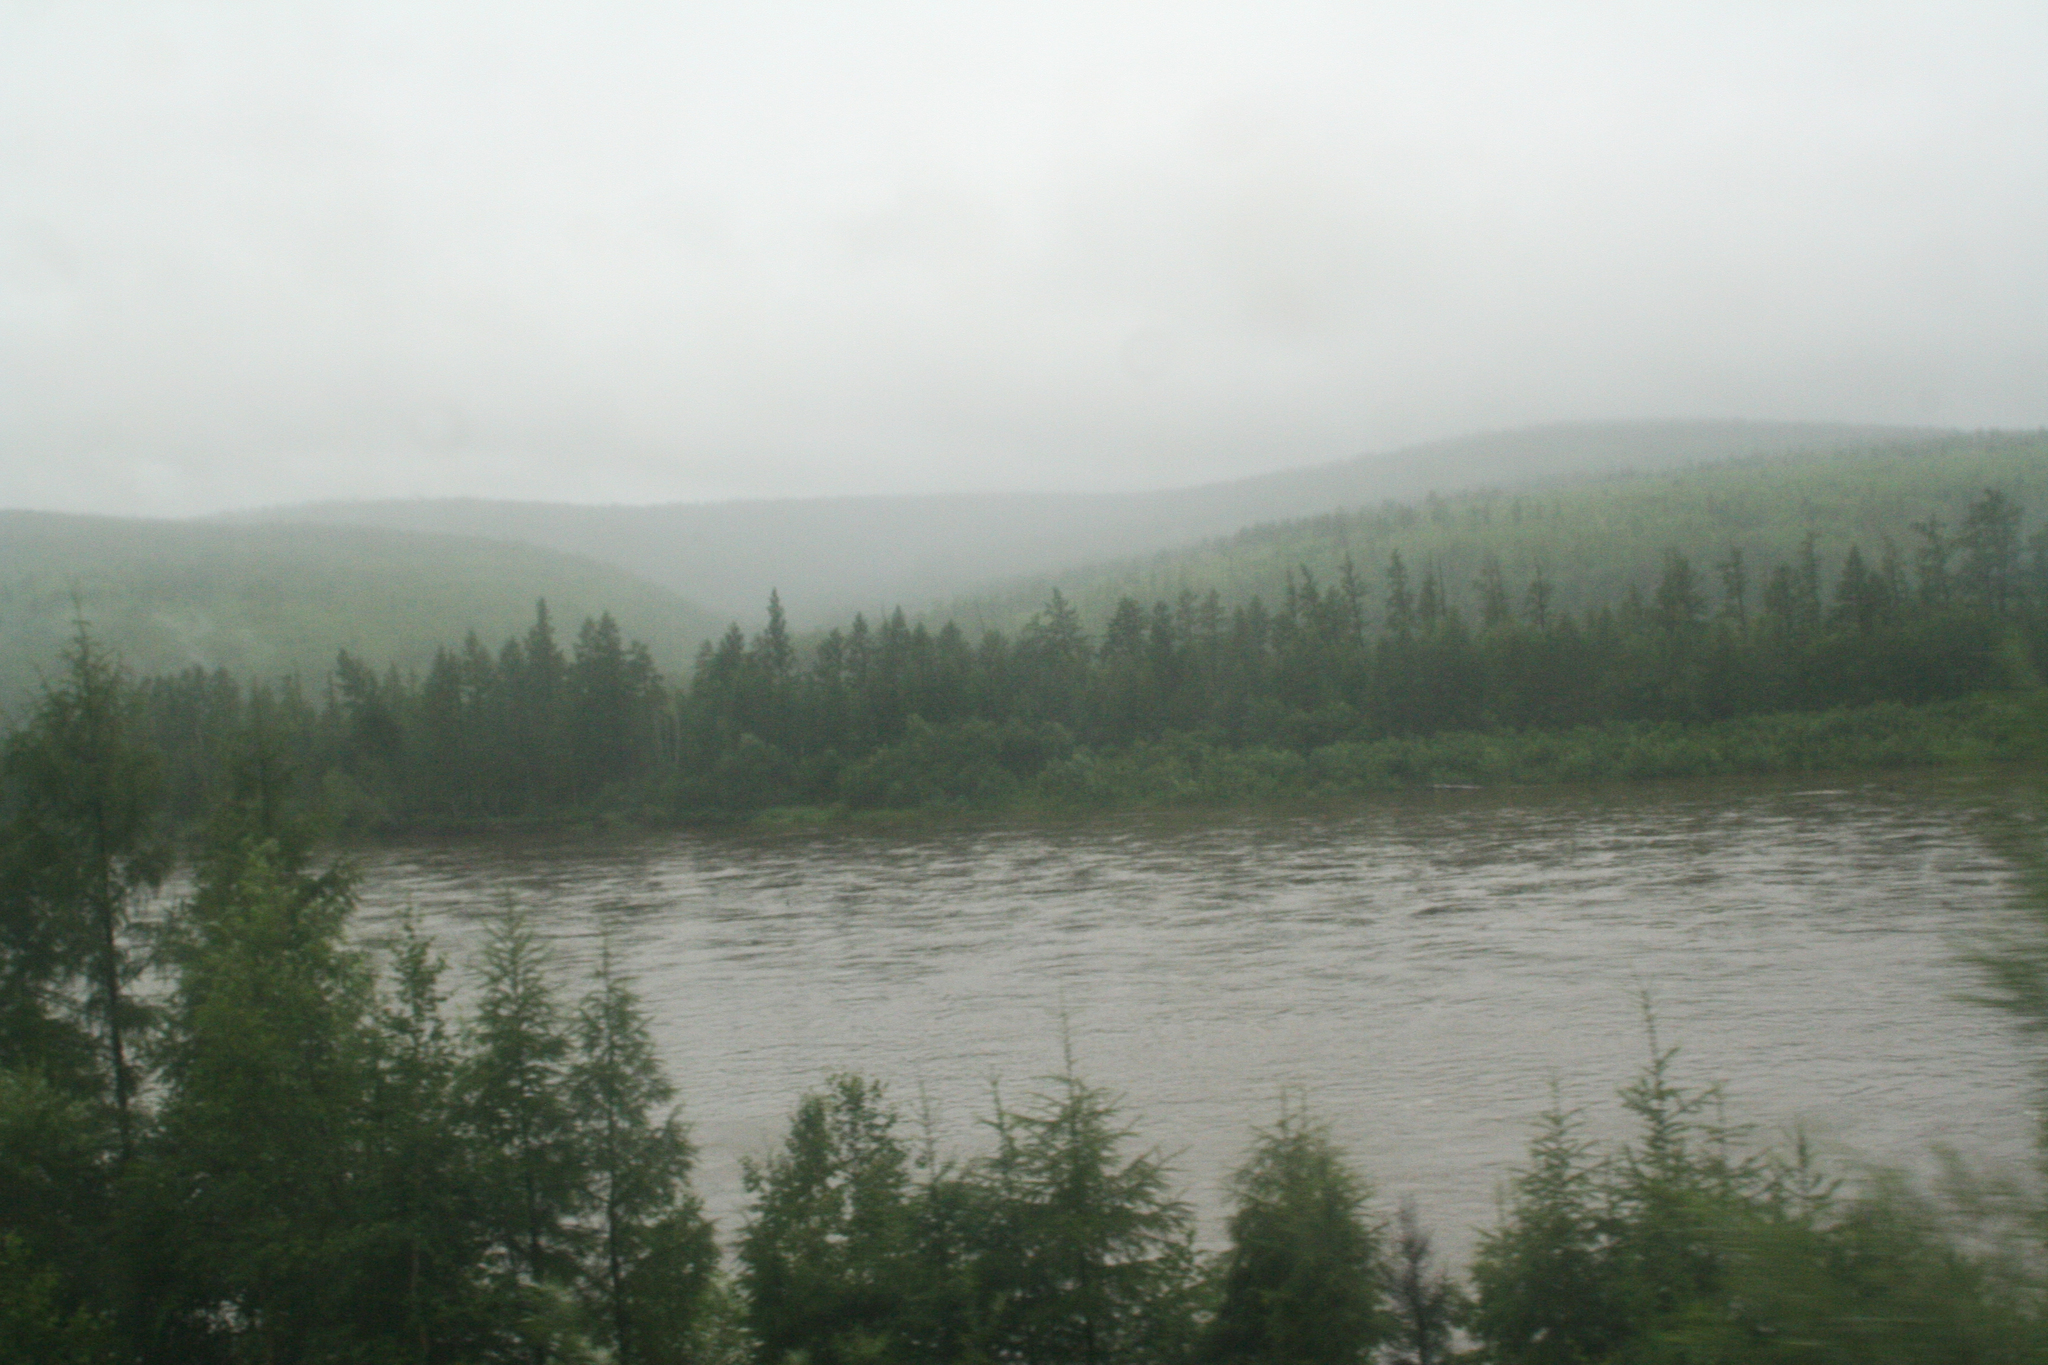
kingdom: Plantae
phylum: Tracheophyta
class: Pinopsida
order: Pinales
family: Pinaceae
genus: Larix
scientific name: Larix gmelinii
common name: Dahurian larch
